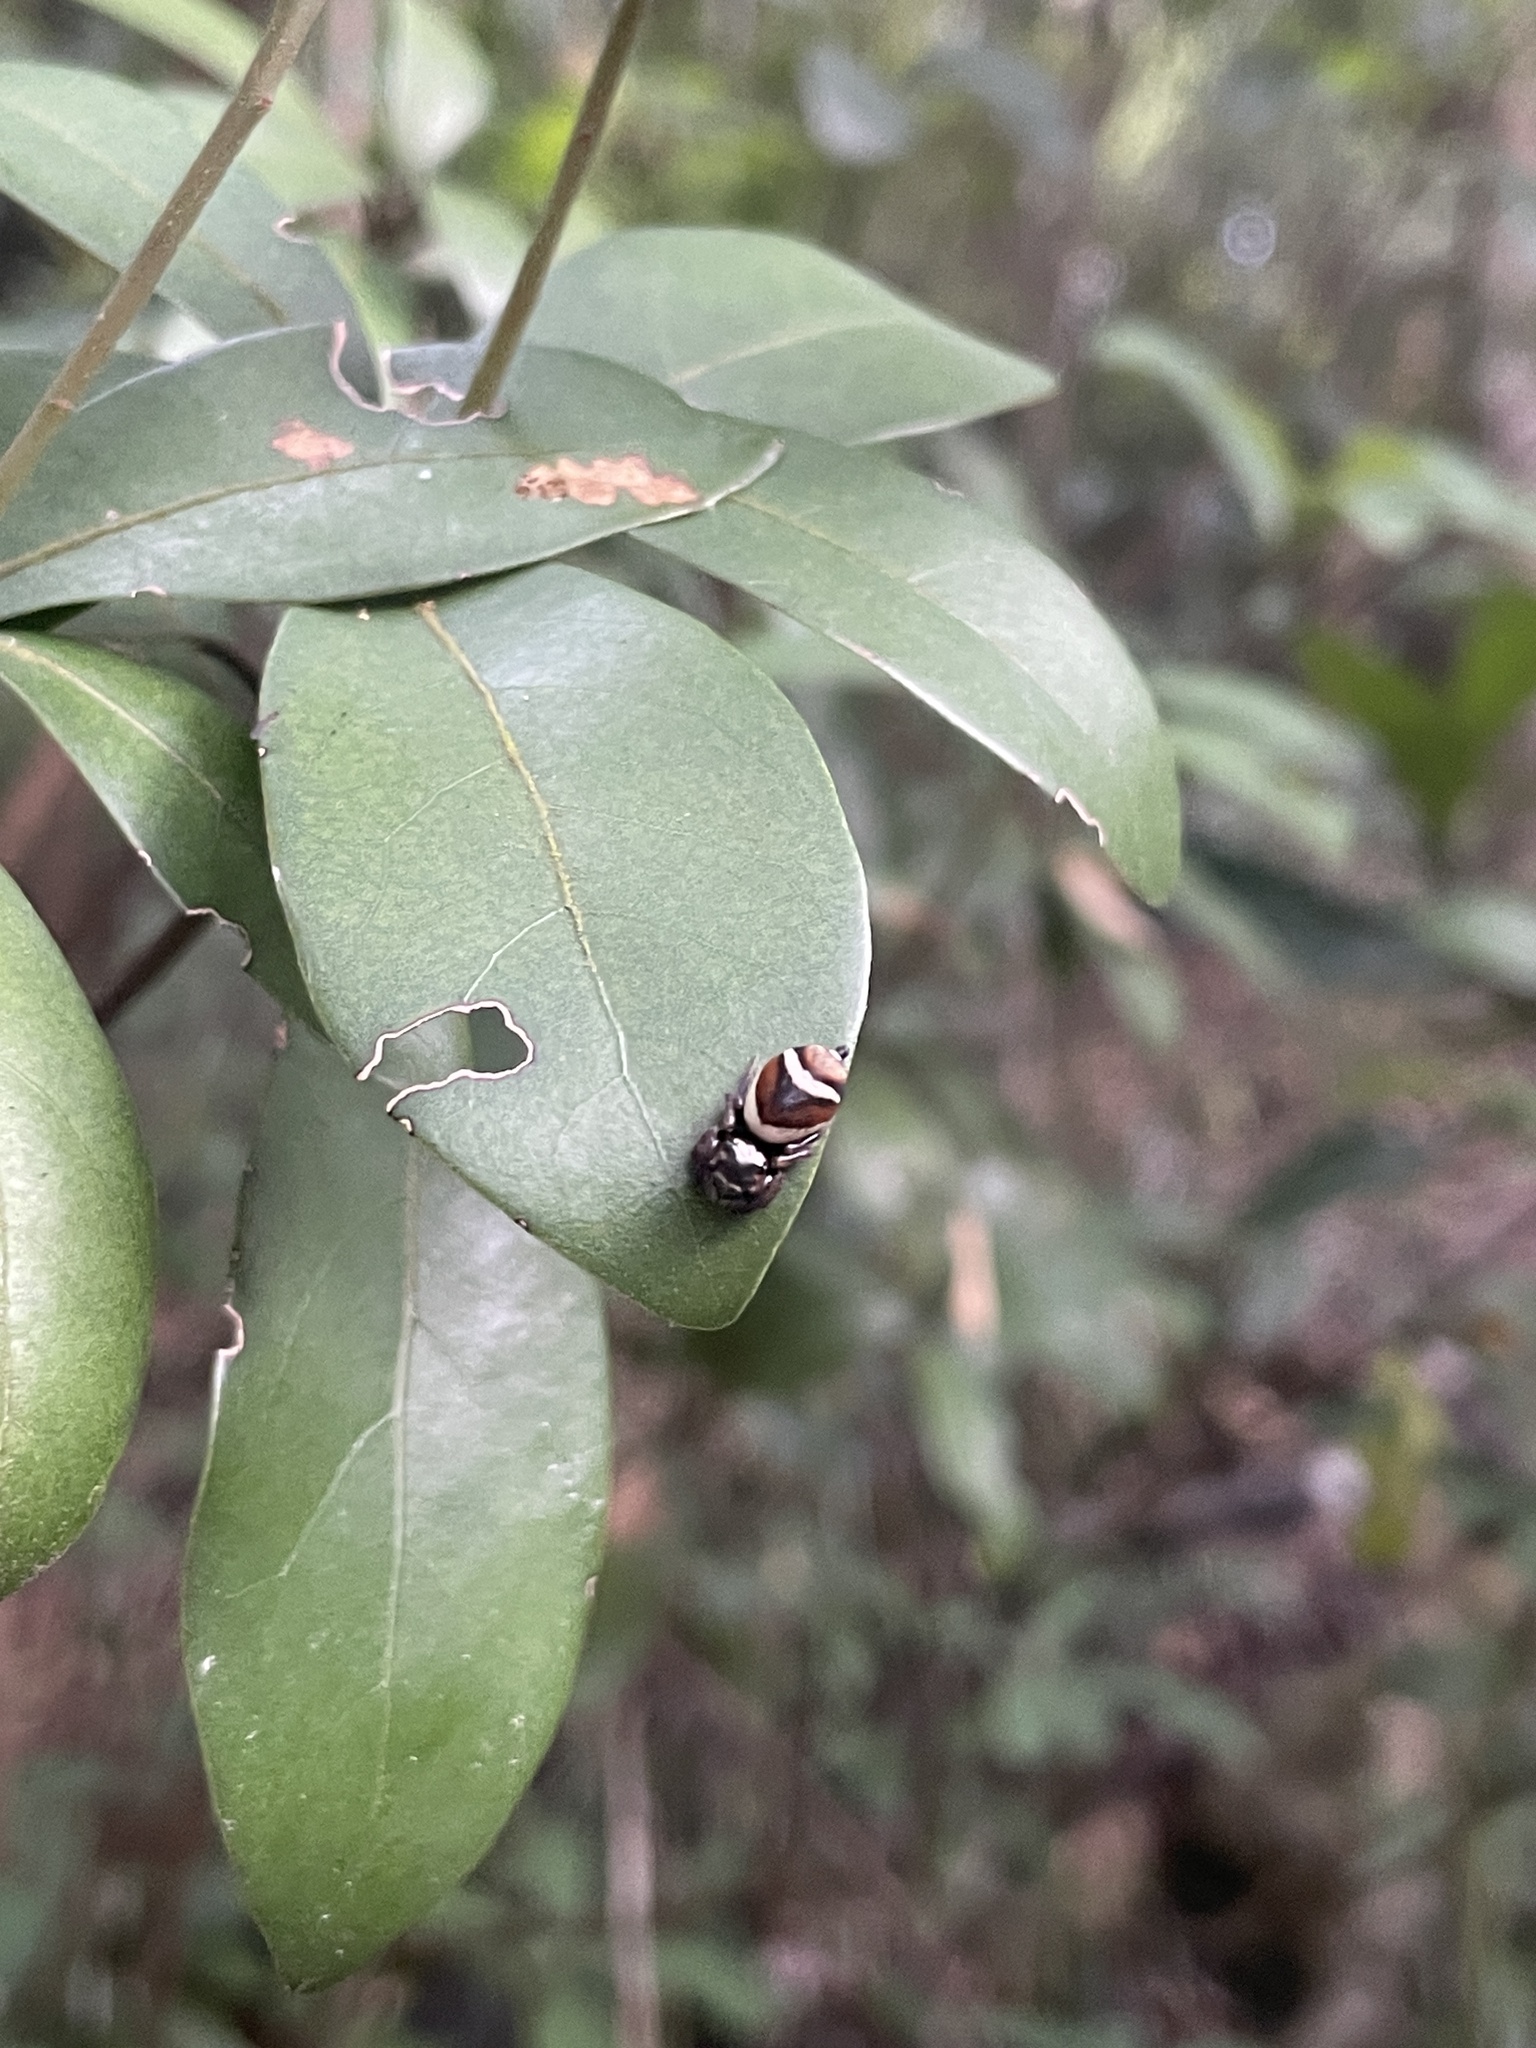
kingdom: Animalia
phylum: Arthropoda
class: Arachnida
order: Araneae
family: Salticidae
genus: Ptocasius
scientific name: Ptocasius strupifer
